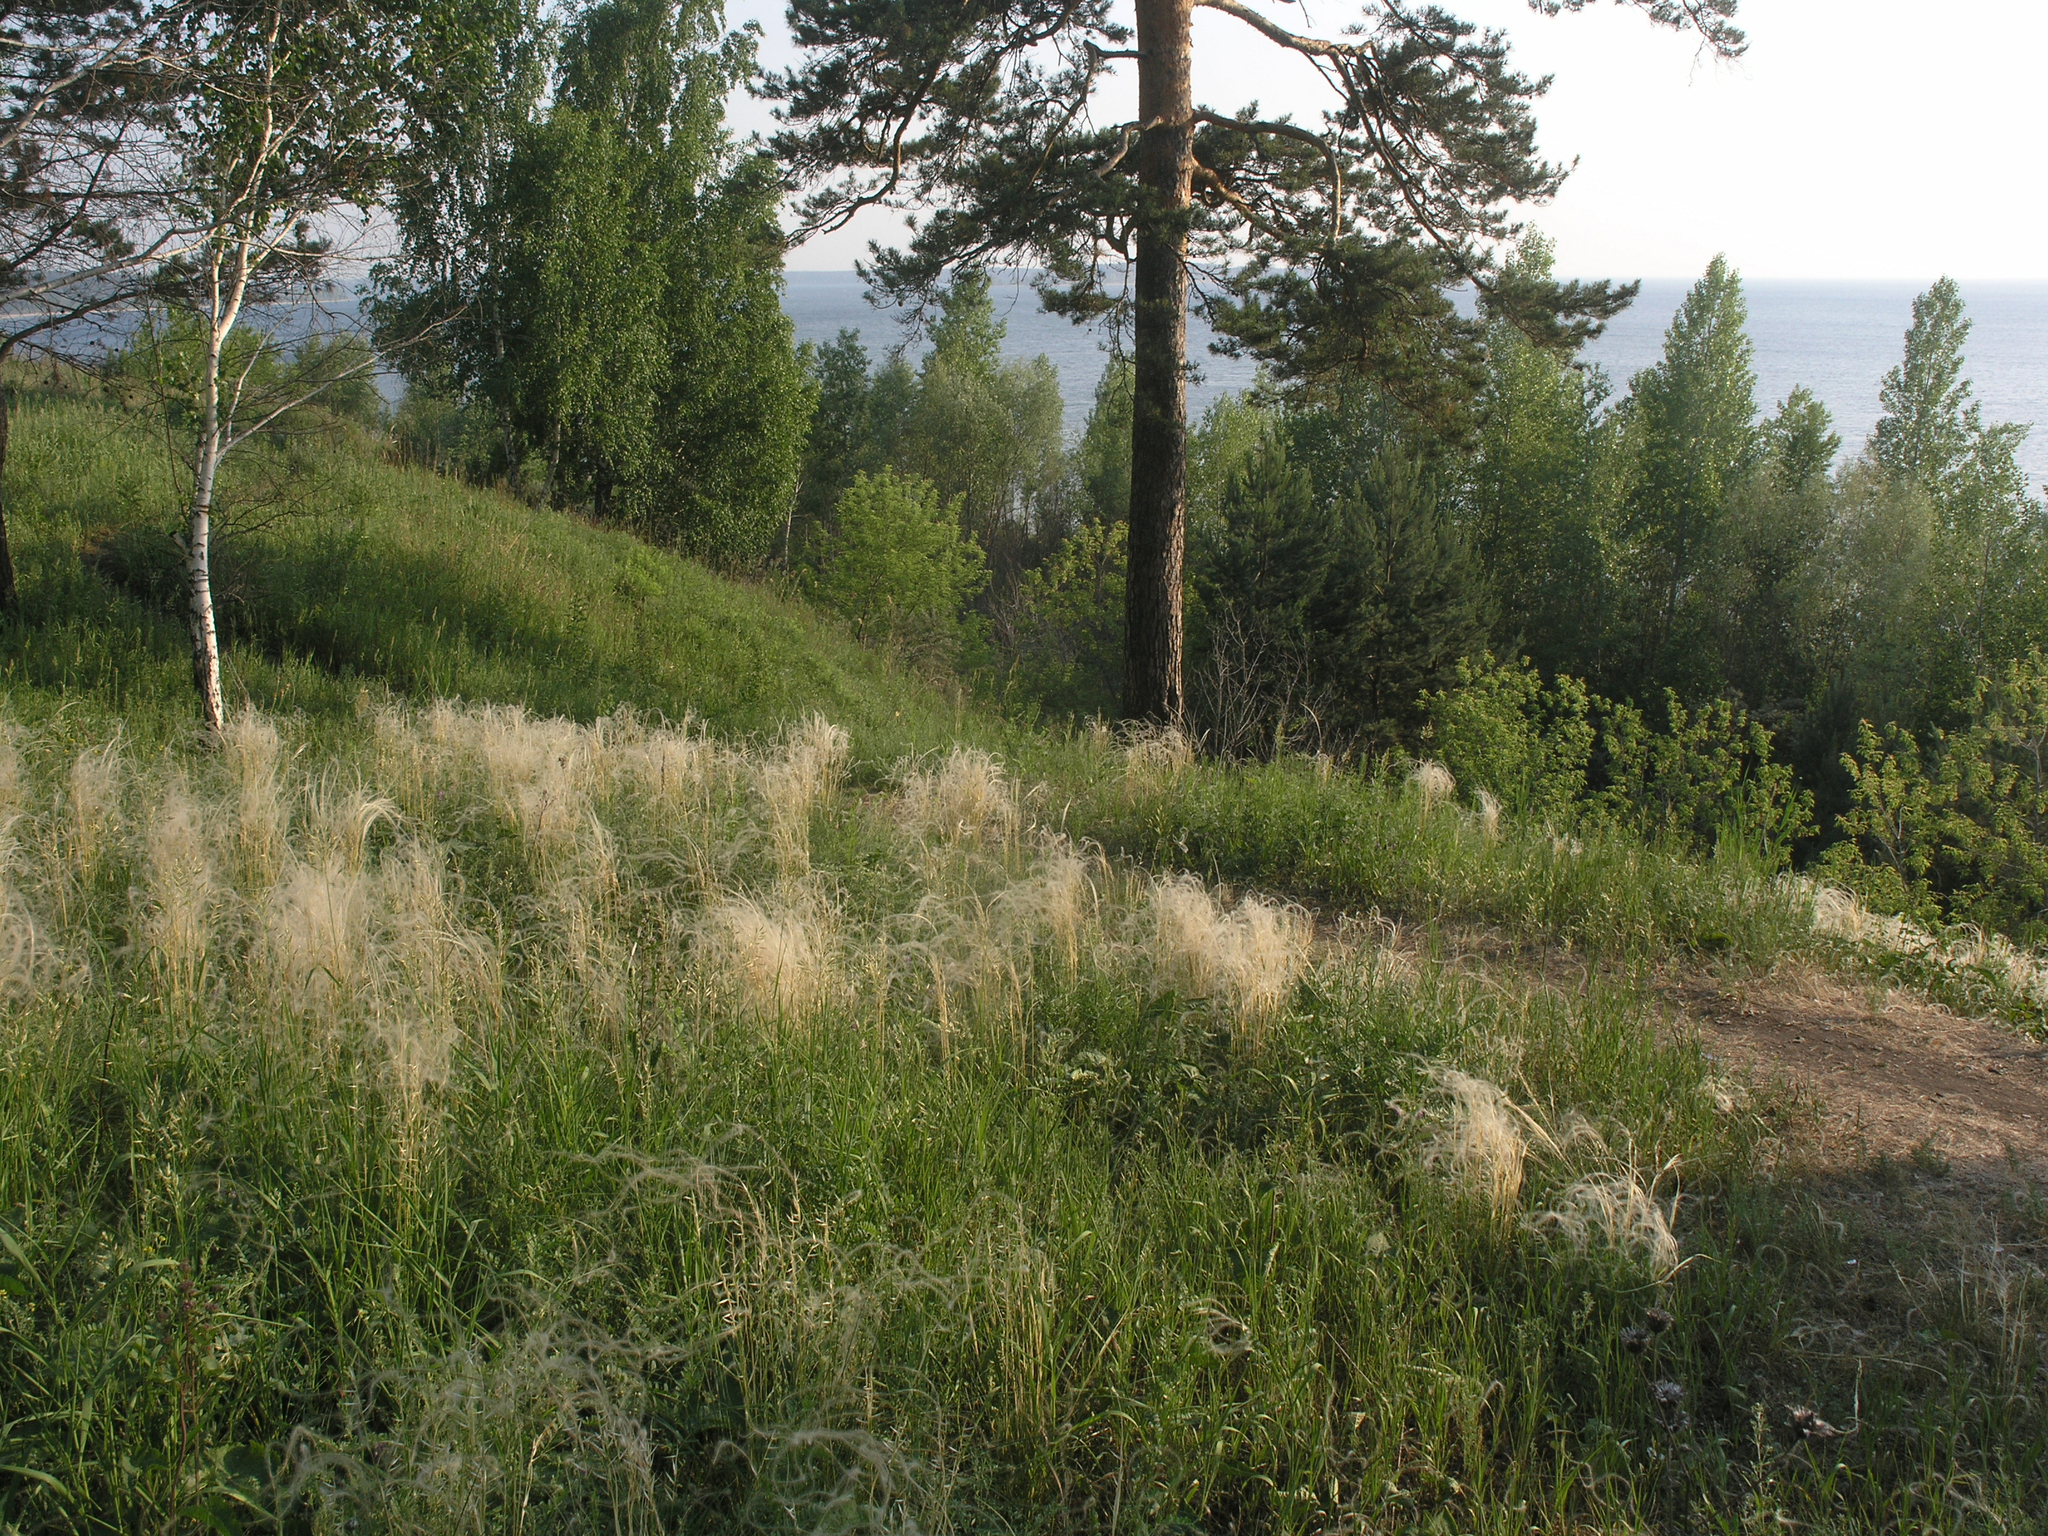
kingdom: Plantae
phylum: Tracheophyta
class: Liliopsida
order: Poales
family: Poaceae
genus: Stipa
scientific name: Stipa pennata
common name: European feather grass
